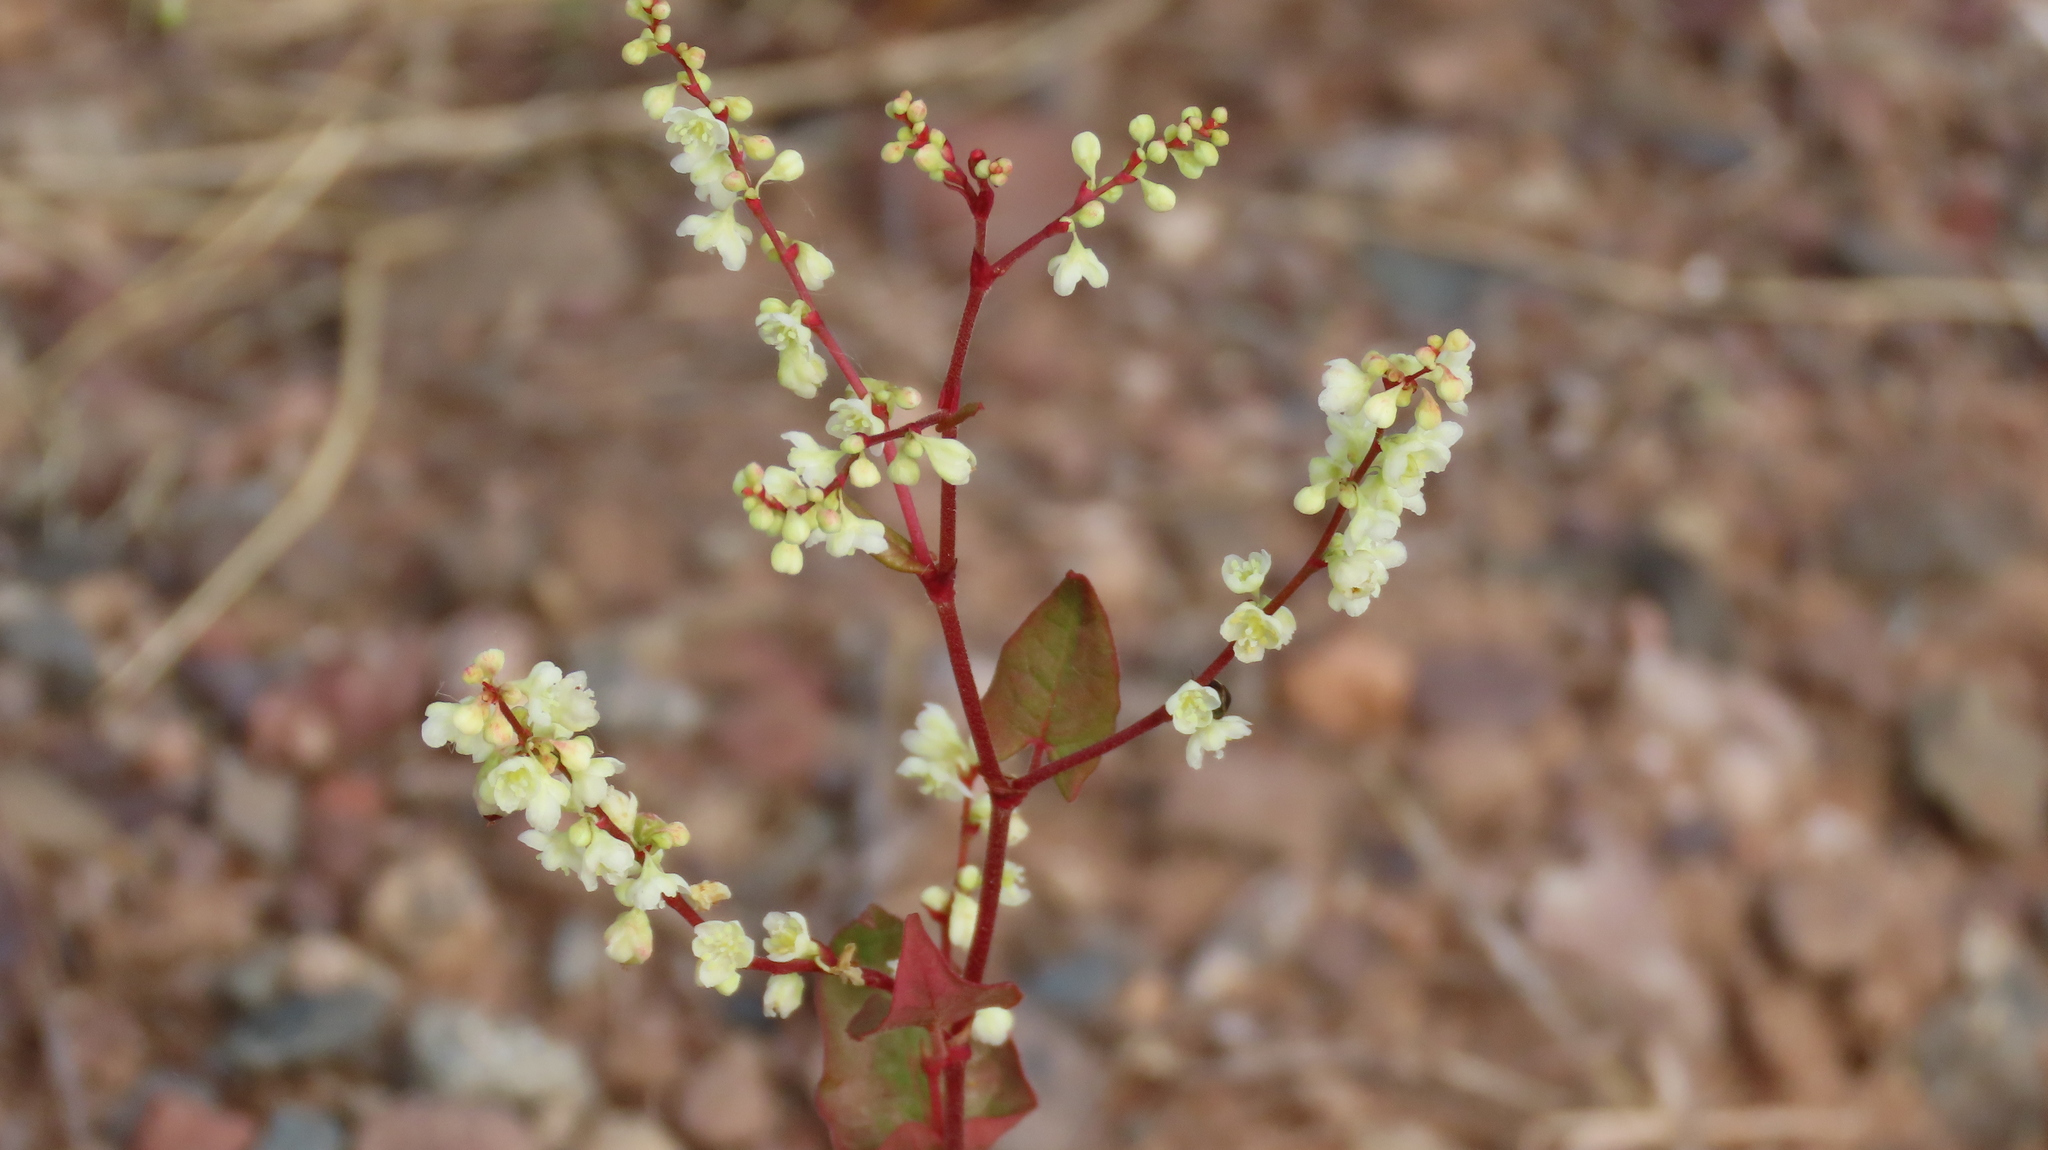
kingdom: Plantae
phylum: Tracheophyta
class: Magnoliopsida
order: Caryophyllales
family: Polygonaceae
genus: Parogonum
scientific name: Parogonum ciliinode
